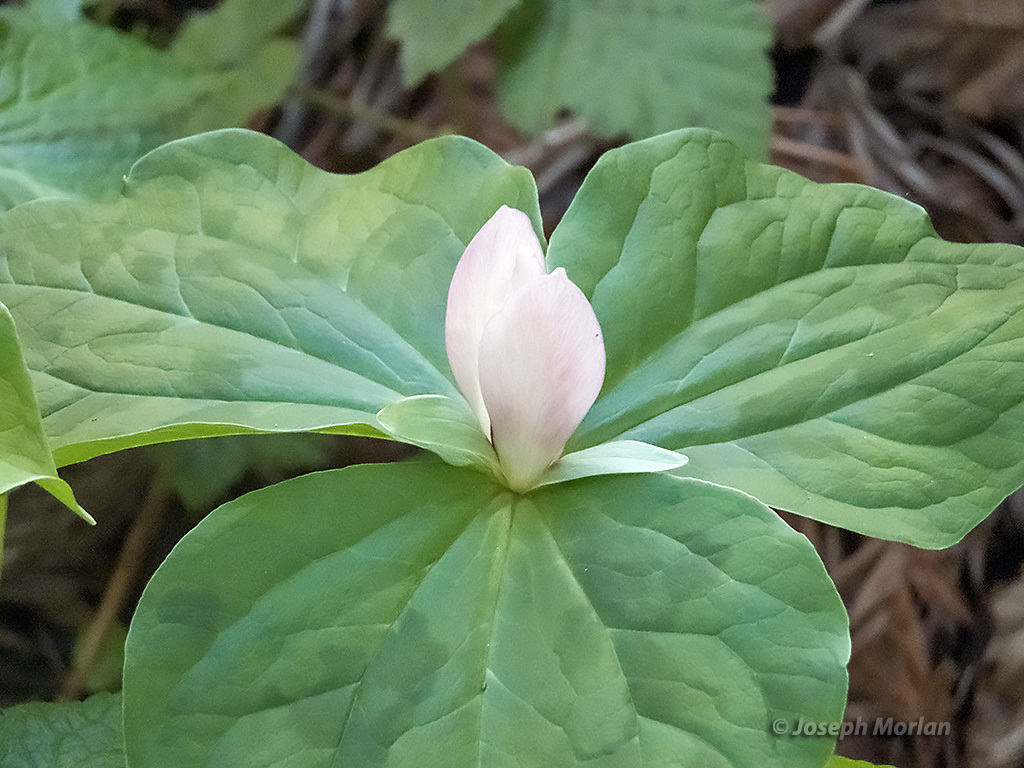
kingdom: Plantae
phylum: Tracheophyta
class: Liliopsida
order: Liliales
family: Melanthiaceae
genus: Trillium
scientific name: Trillium chloropetalum
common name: Giant trillium
